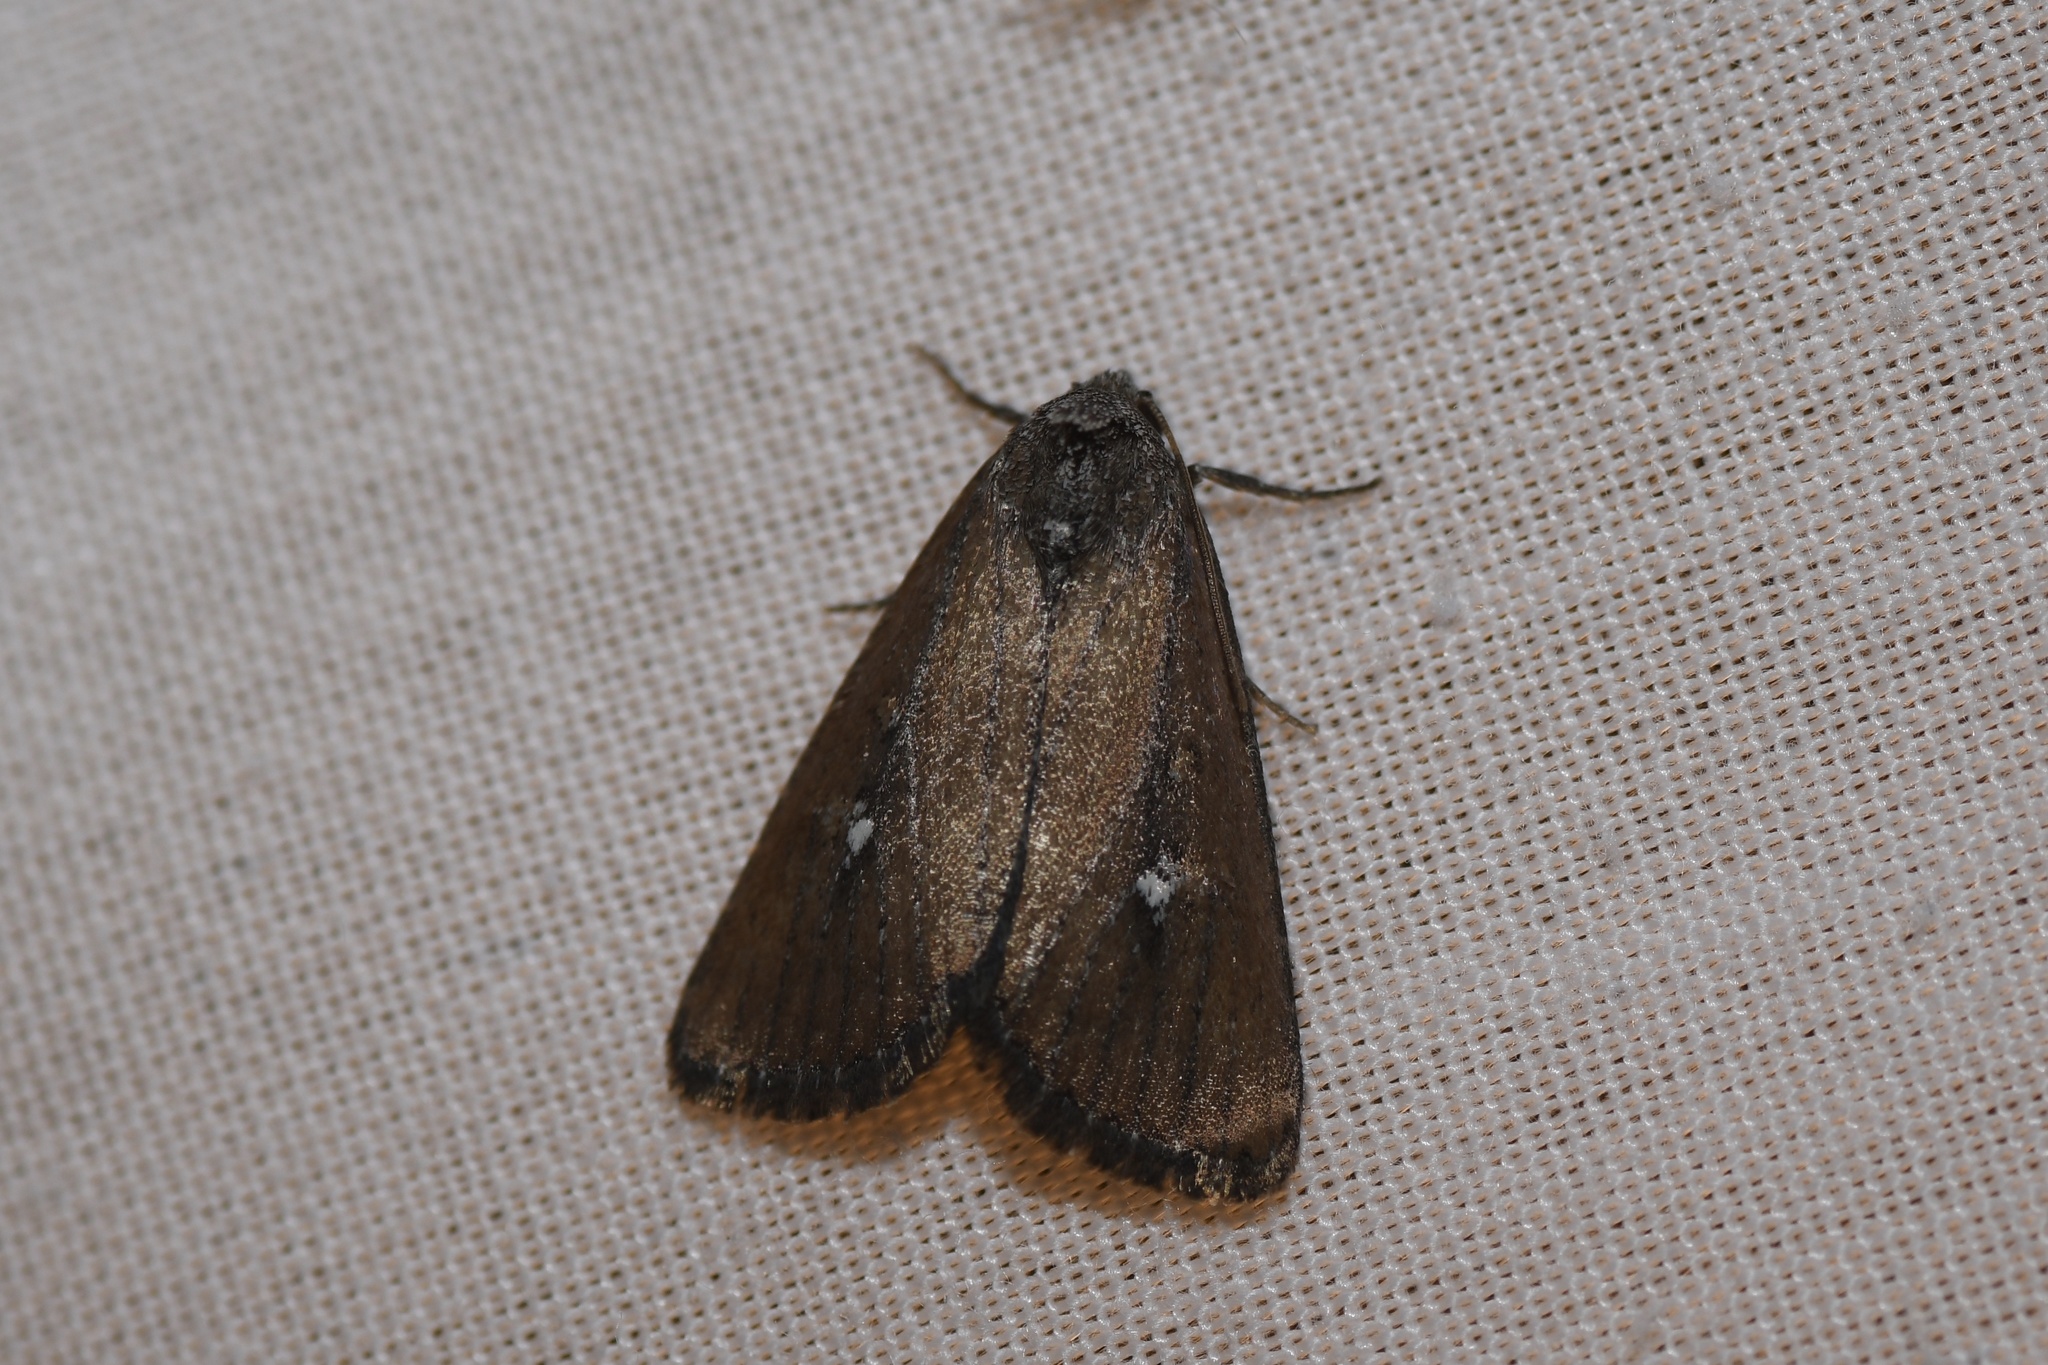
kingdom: Animalia
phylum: Arthropoda
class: Insecta
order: Lepidoptera
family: Noctuidae
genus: Condica
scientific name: Condica videns
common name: White-dotted groundling
